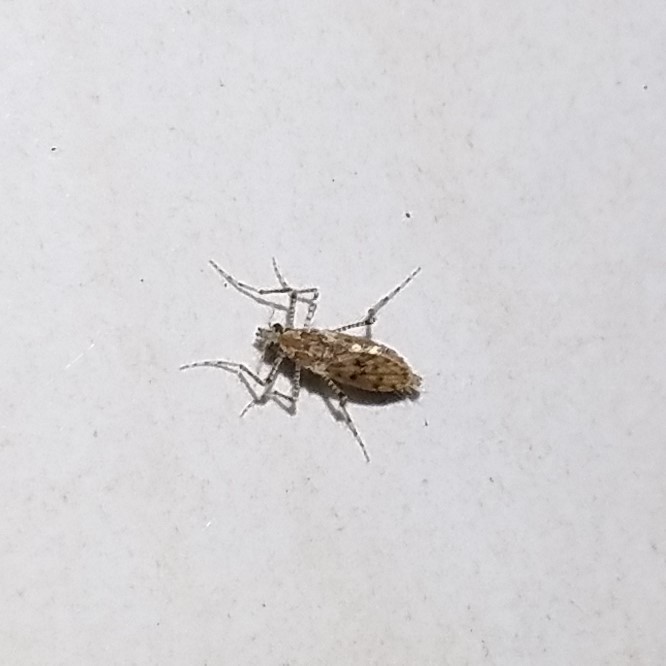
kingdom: Animalia
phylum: Arthropoda
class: Insecta
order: Diptera
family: Chaoboridae
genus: Chaoborus
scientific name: Chaoborus punctipennis
